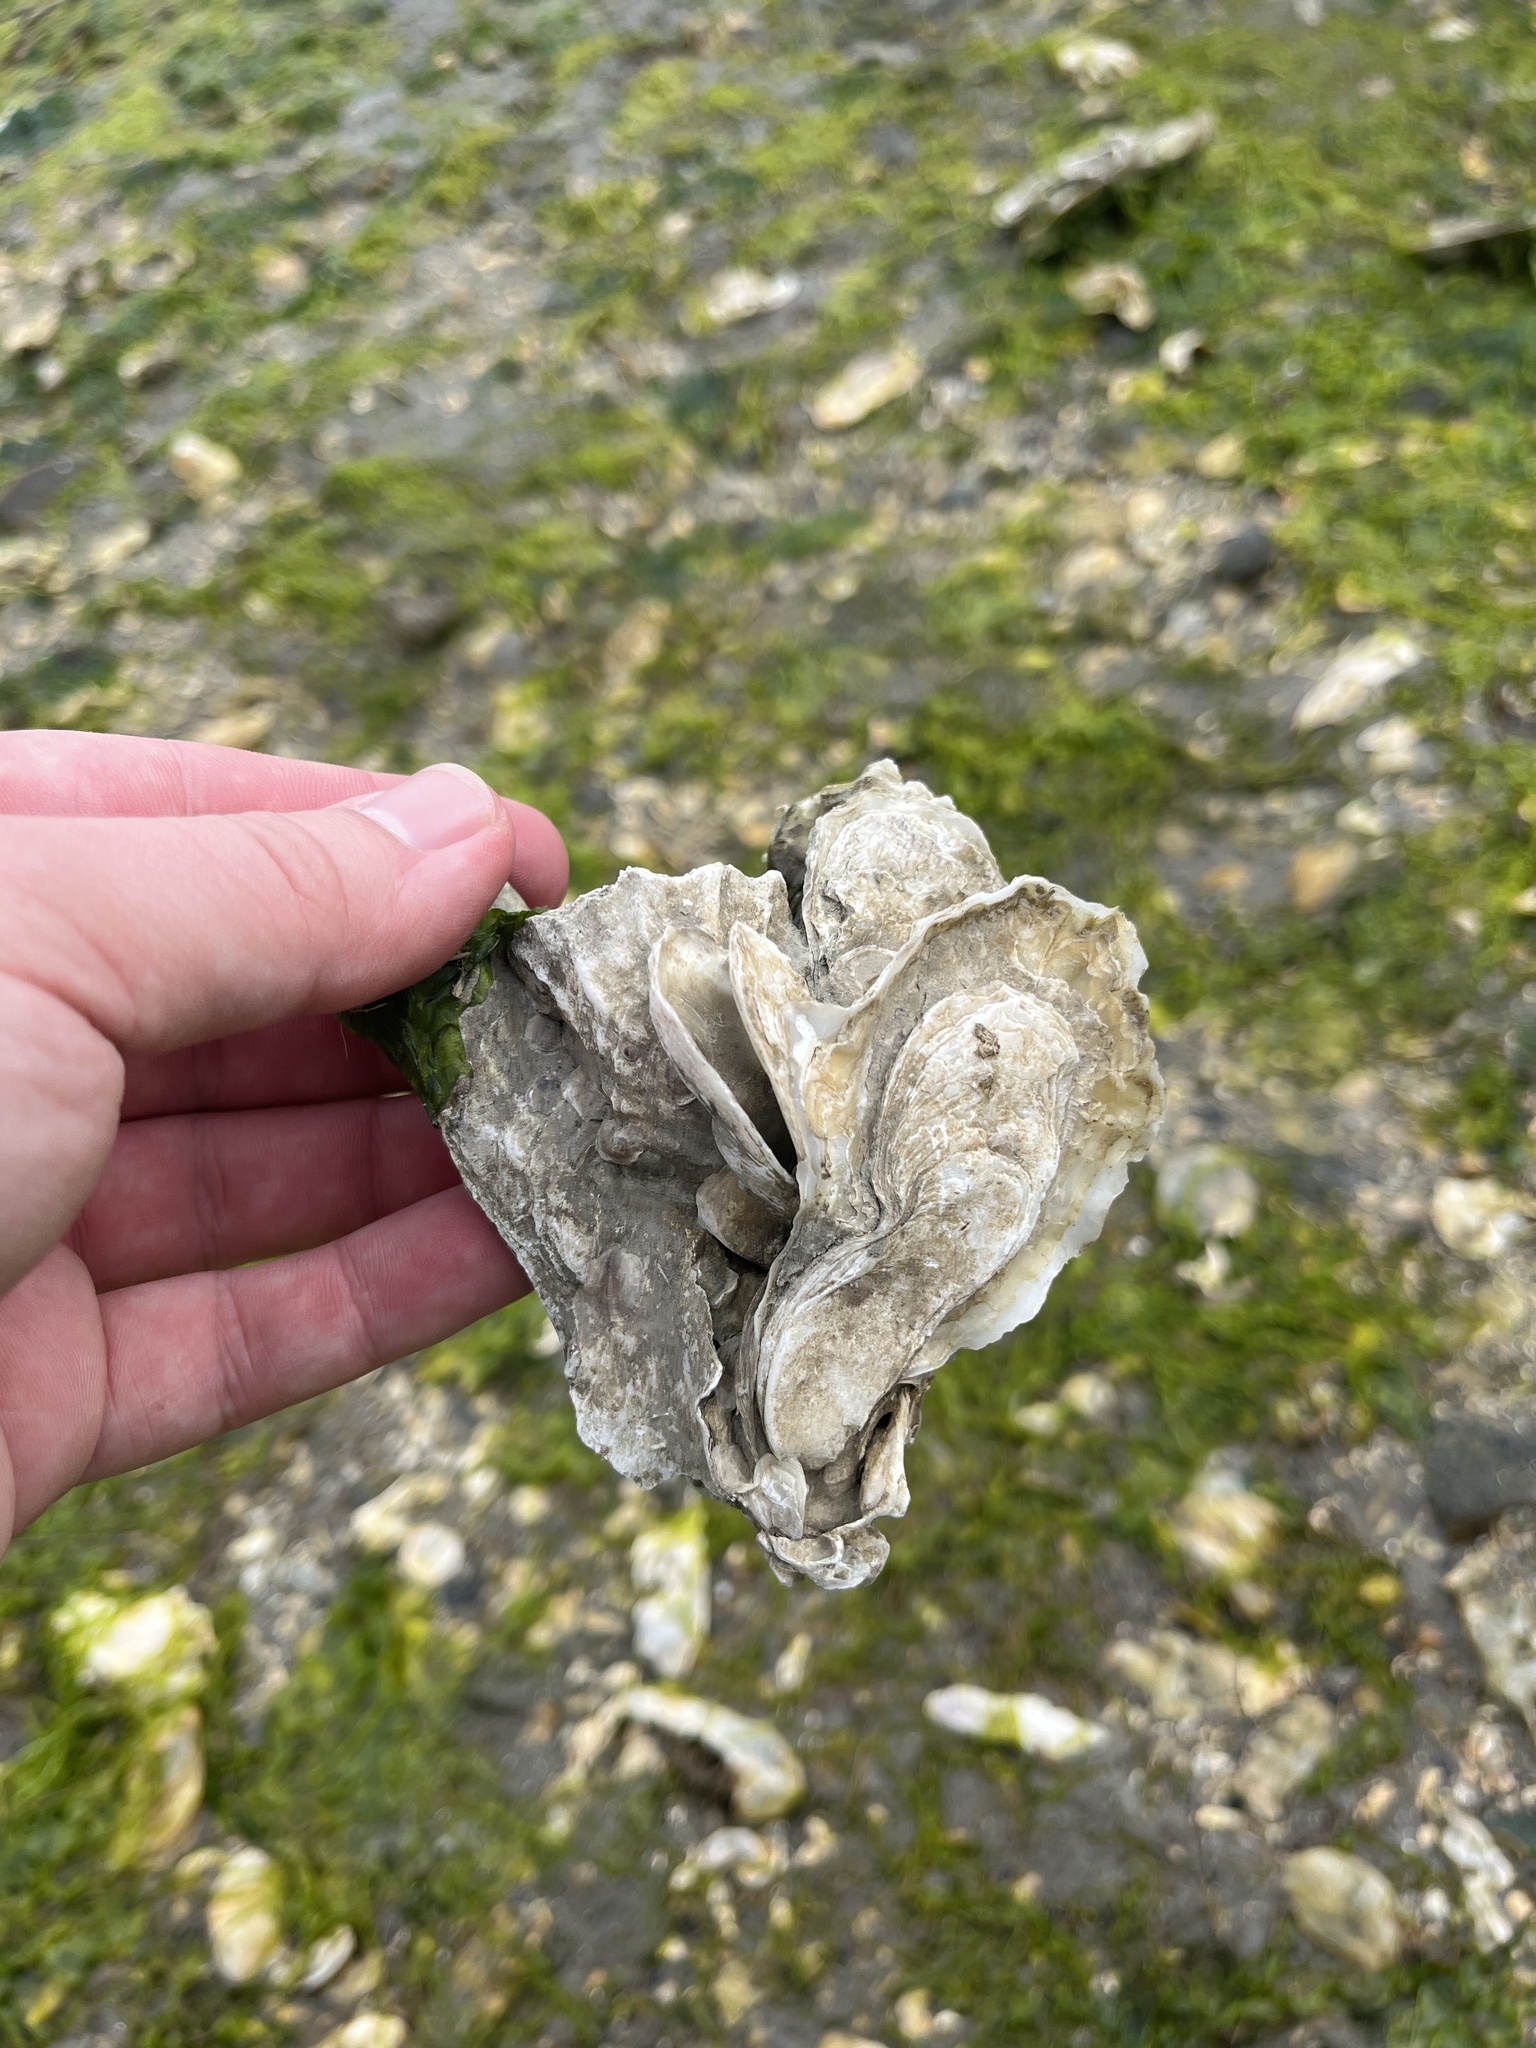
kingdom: Animalia
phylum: Mollusca
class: Bivalvia
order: Ostreida
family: Ostreidae
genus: Crassostrea
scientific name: Crassostrea virginica
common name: American oyster
